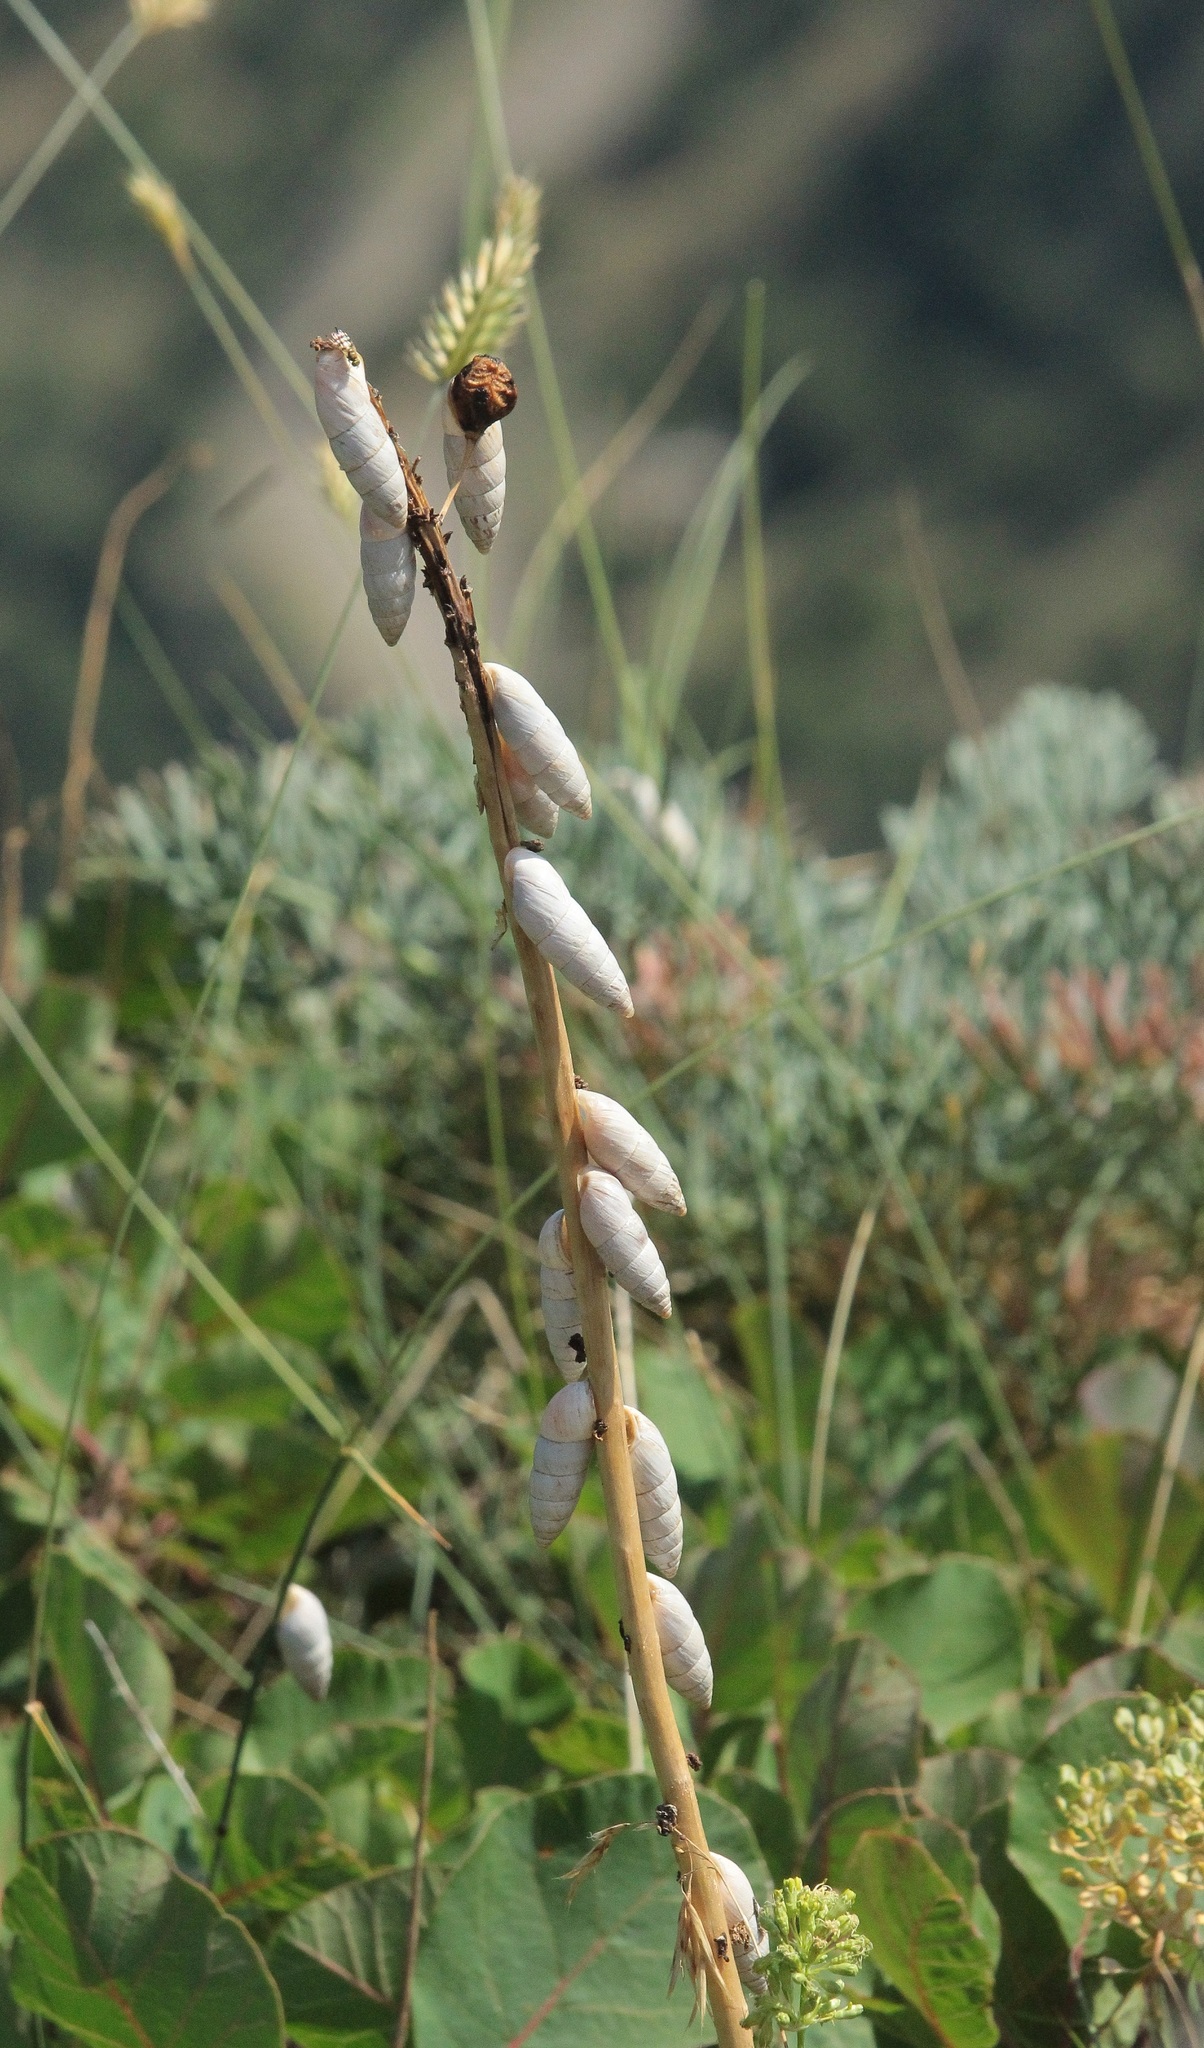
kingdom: Animalia
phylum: Mollusca
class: Gastropoda
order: Stylommatophora
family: Enidae
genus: Brephulopsis
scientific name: Brephulopsis cylindrica
